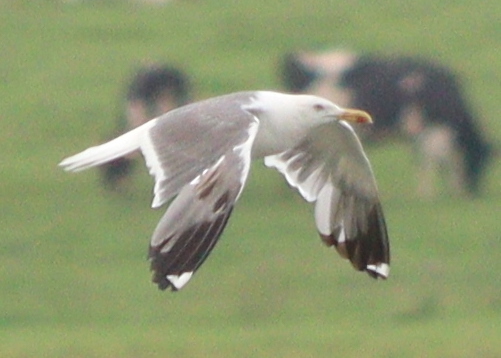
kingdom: Animalia
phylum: Chordata
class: Aves
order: Charadriiformes
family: Laridae
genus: Larus
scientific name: Larus fuscus
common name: Lesser black-backed gull
